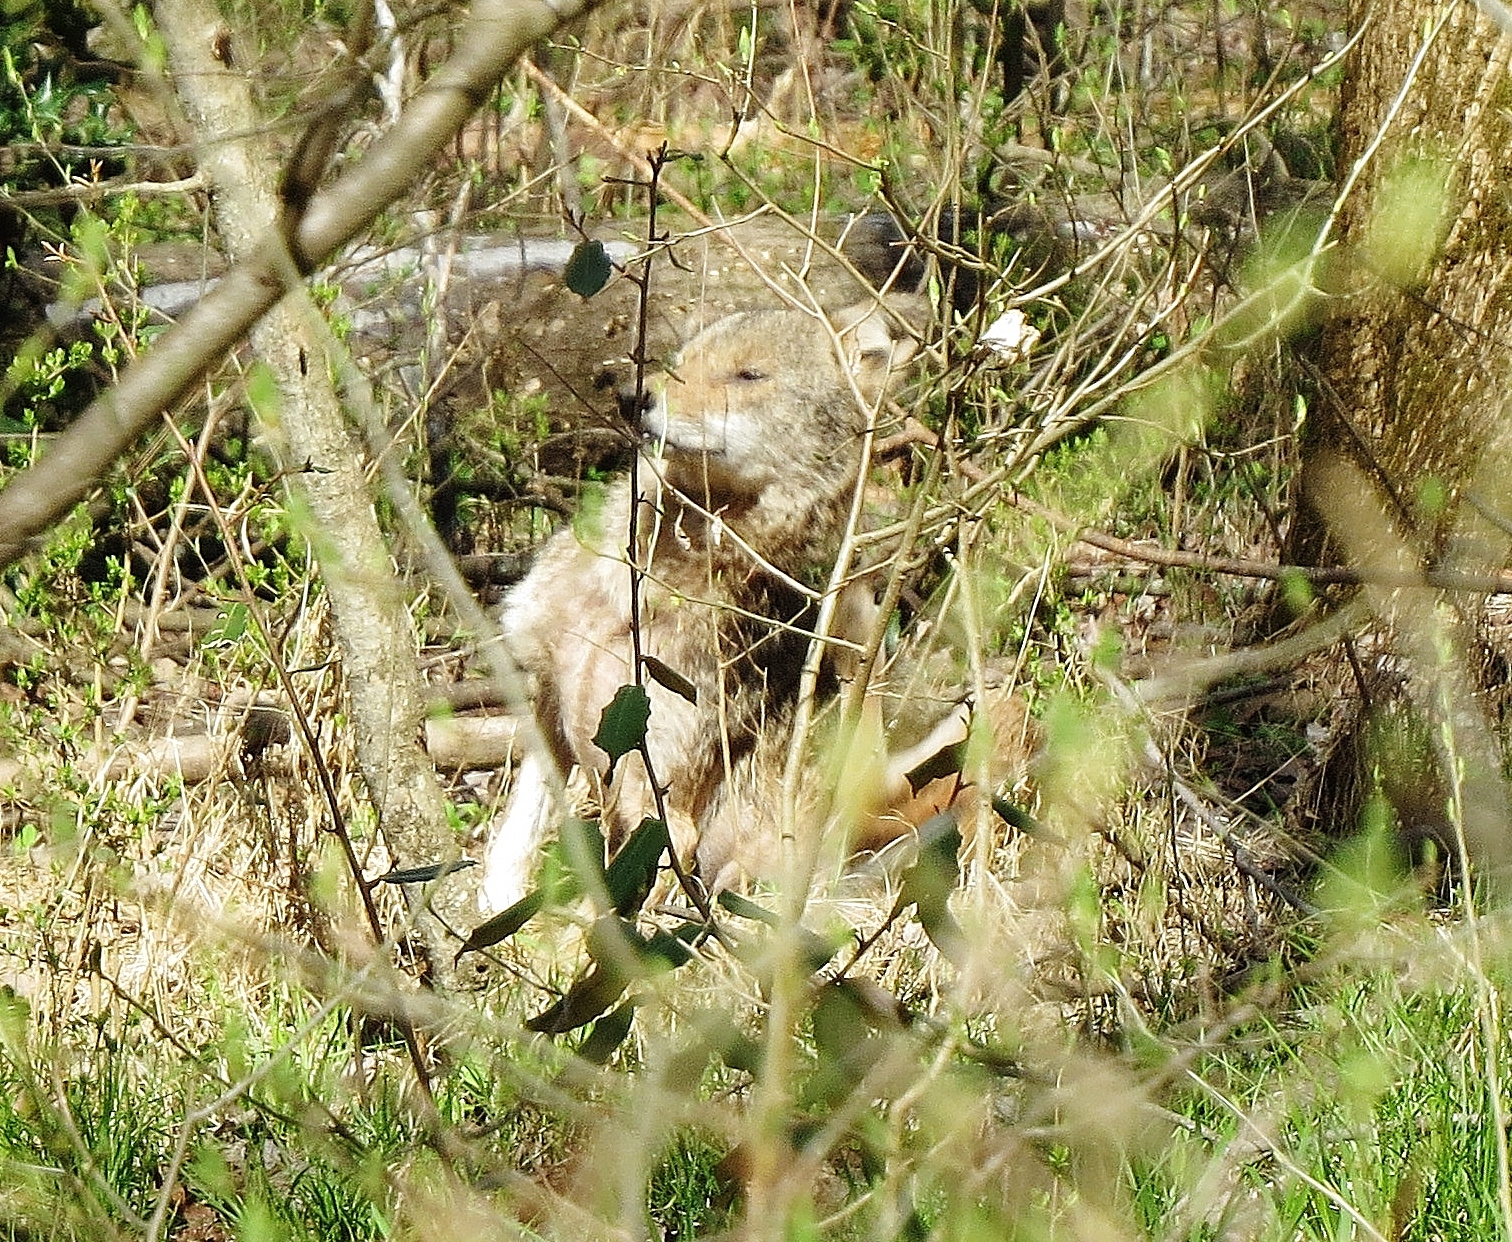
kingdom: Animalia
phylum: Chordata
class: Mammalia
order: Carnivora
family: Canidae
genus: Canis
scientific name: Canis latrans
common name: Coyote
